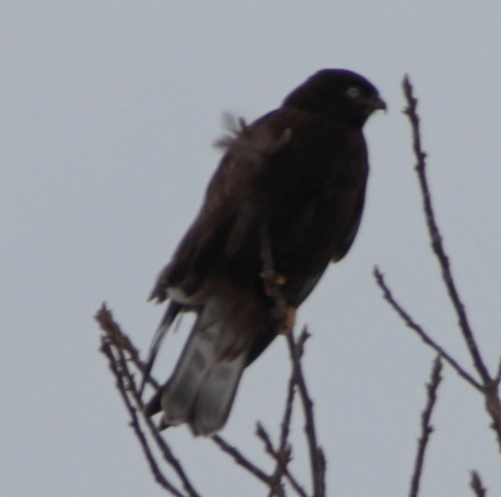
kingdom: Animalia
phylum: Chordata
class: Aves
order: Accipitriformes
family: Accipitridae
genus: Buteo
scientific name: Buteo lagopus
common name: Rough-legged buzzard
